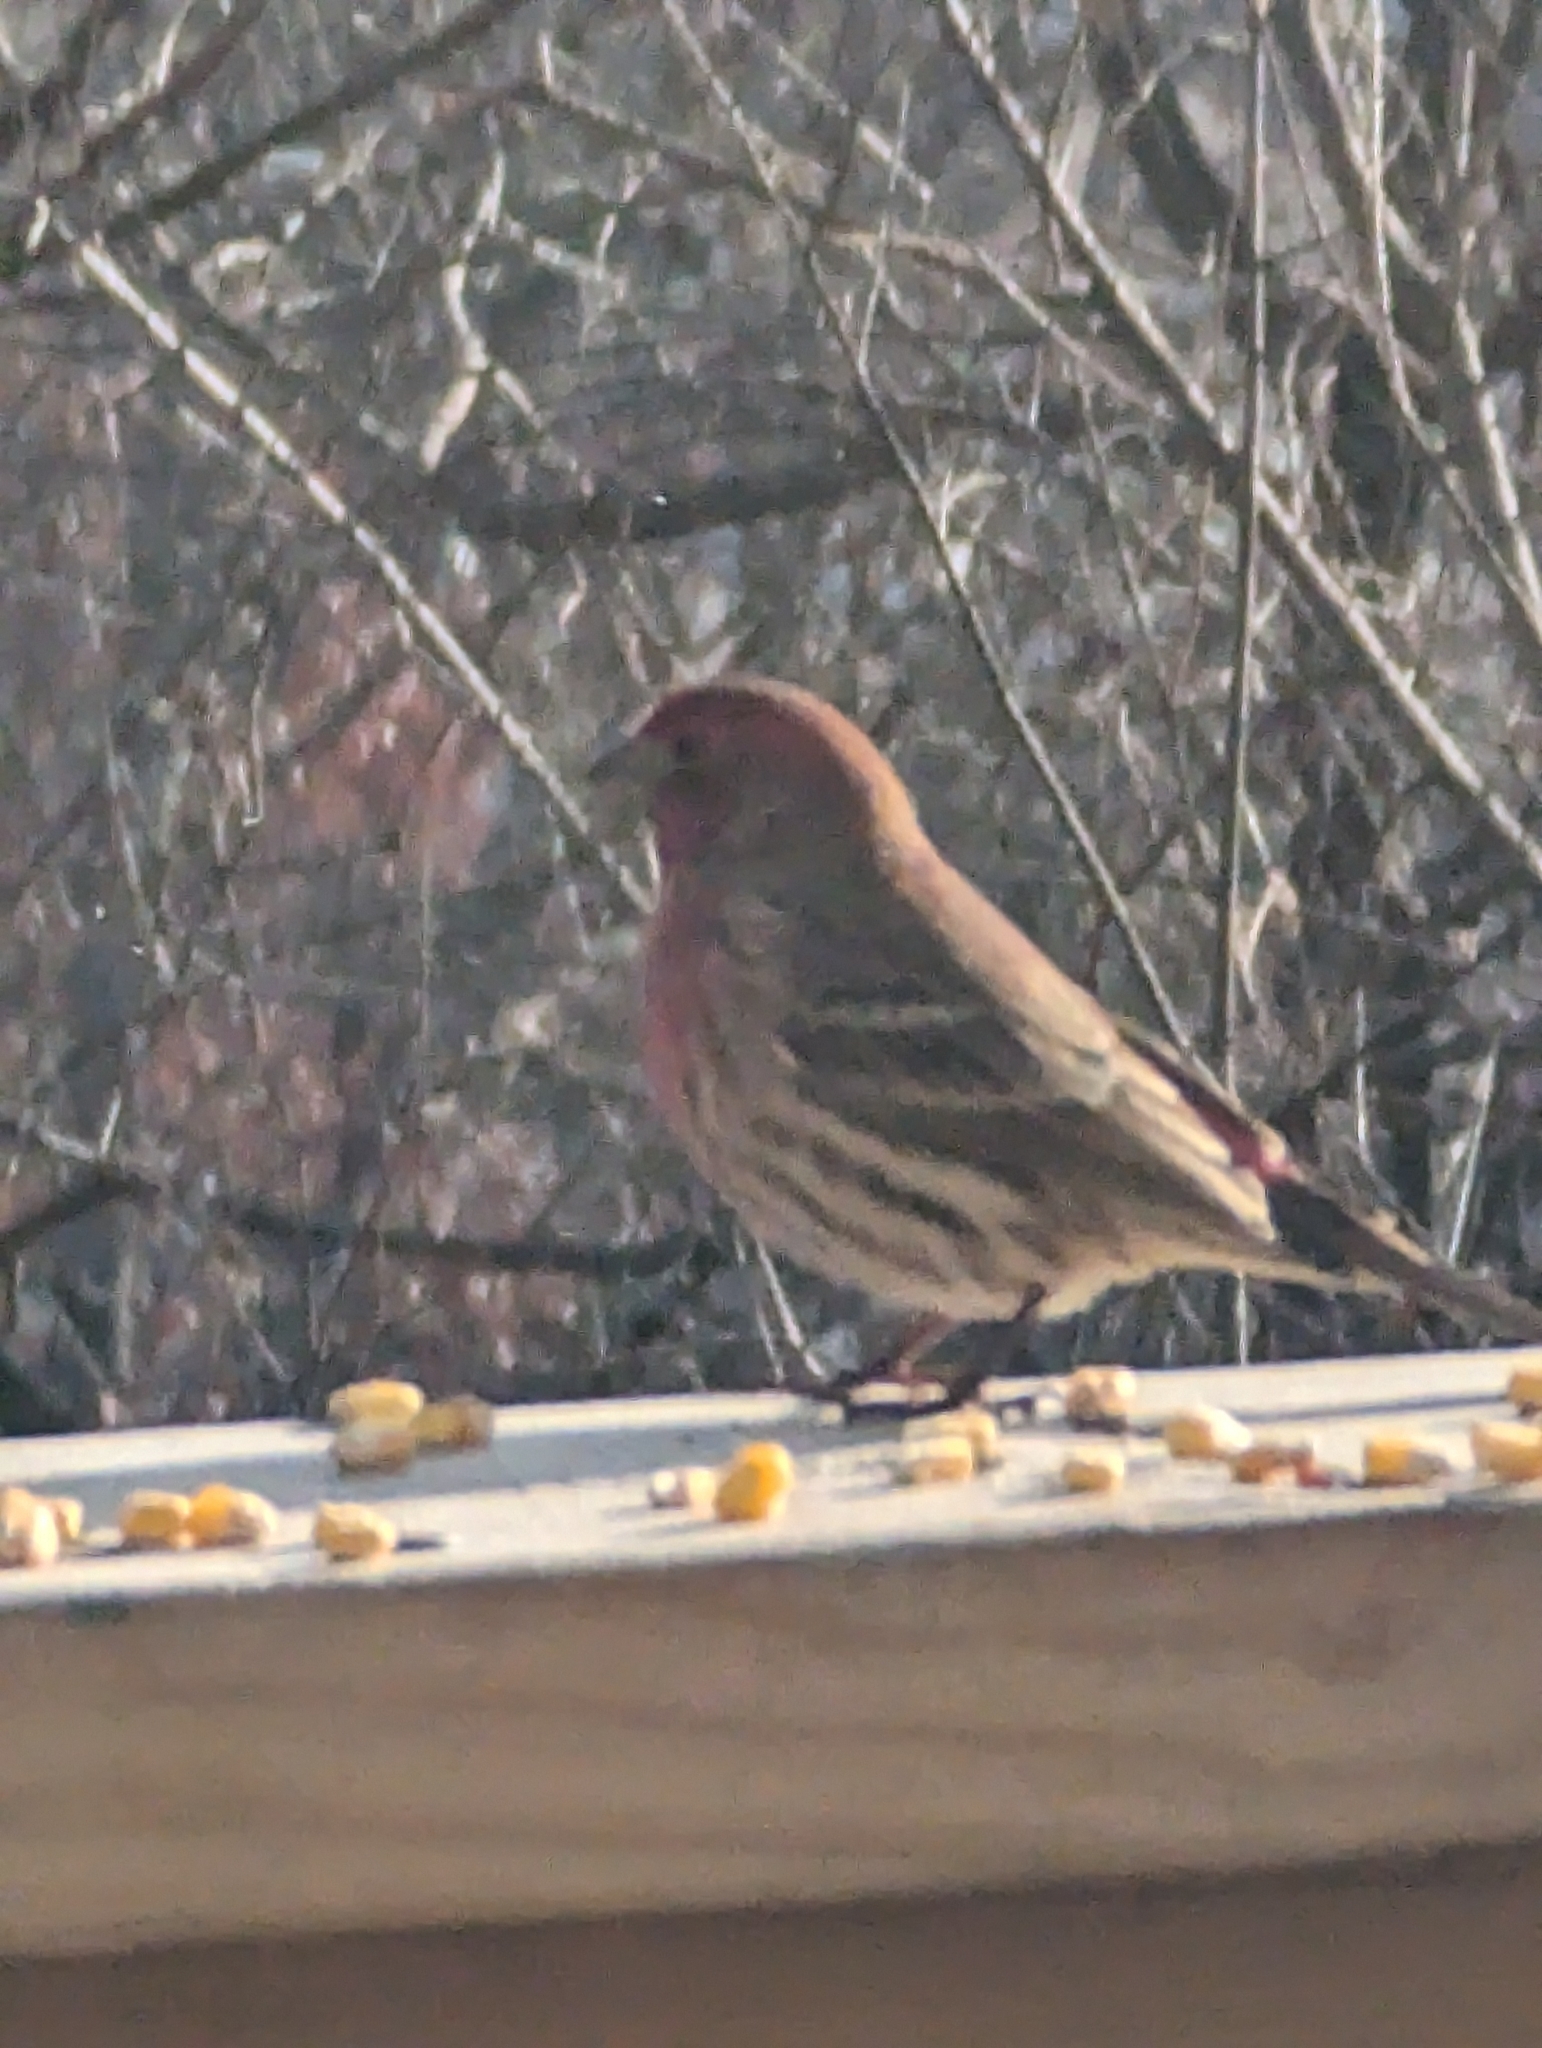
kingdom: Animalia
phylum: Chordata
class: Aves
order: Passeriformes
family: Fringillidae
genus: Haemorhous
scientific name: Haemorhous mexicanus
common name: House finch
